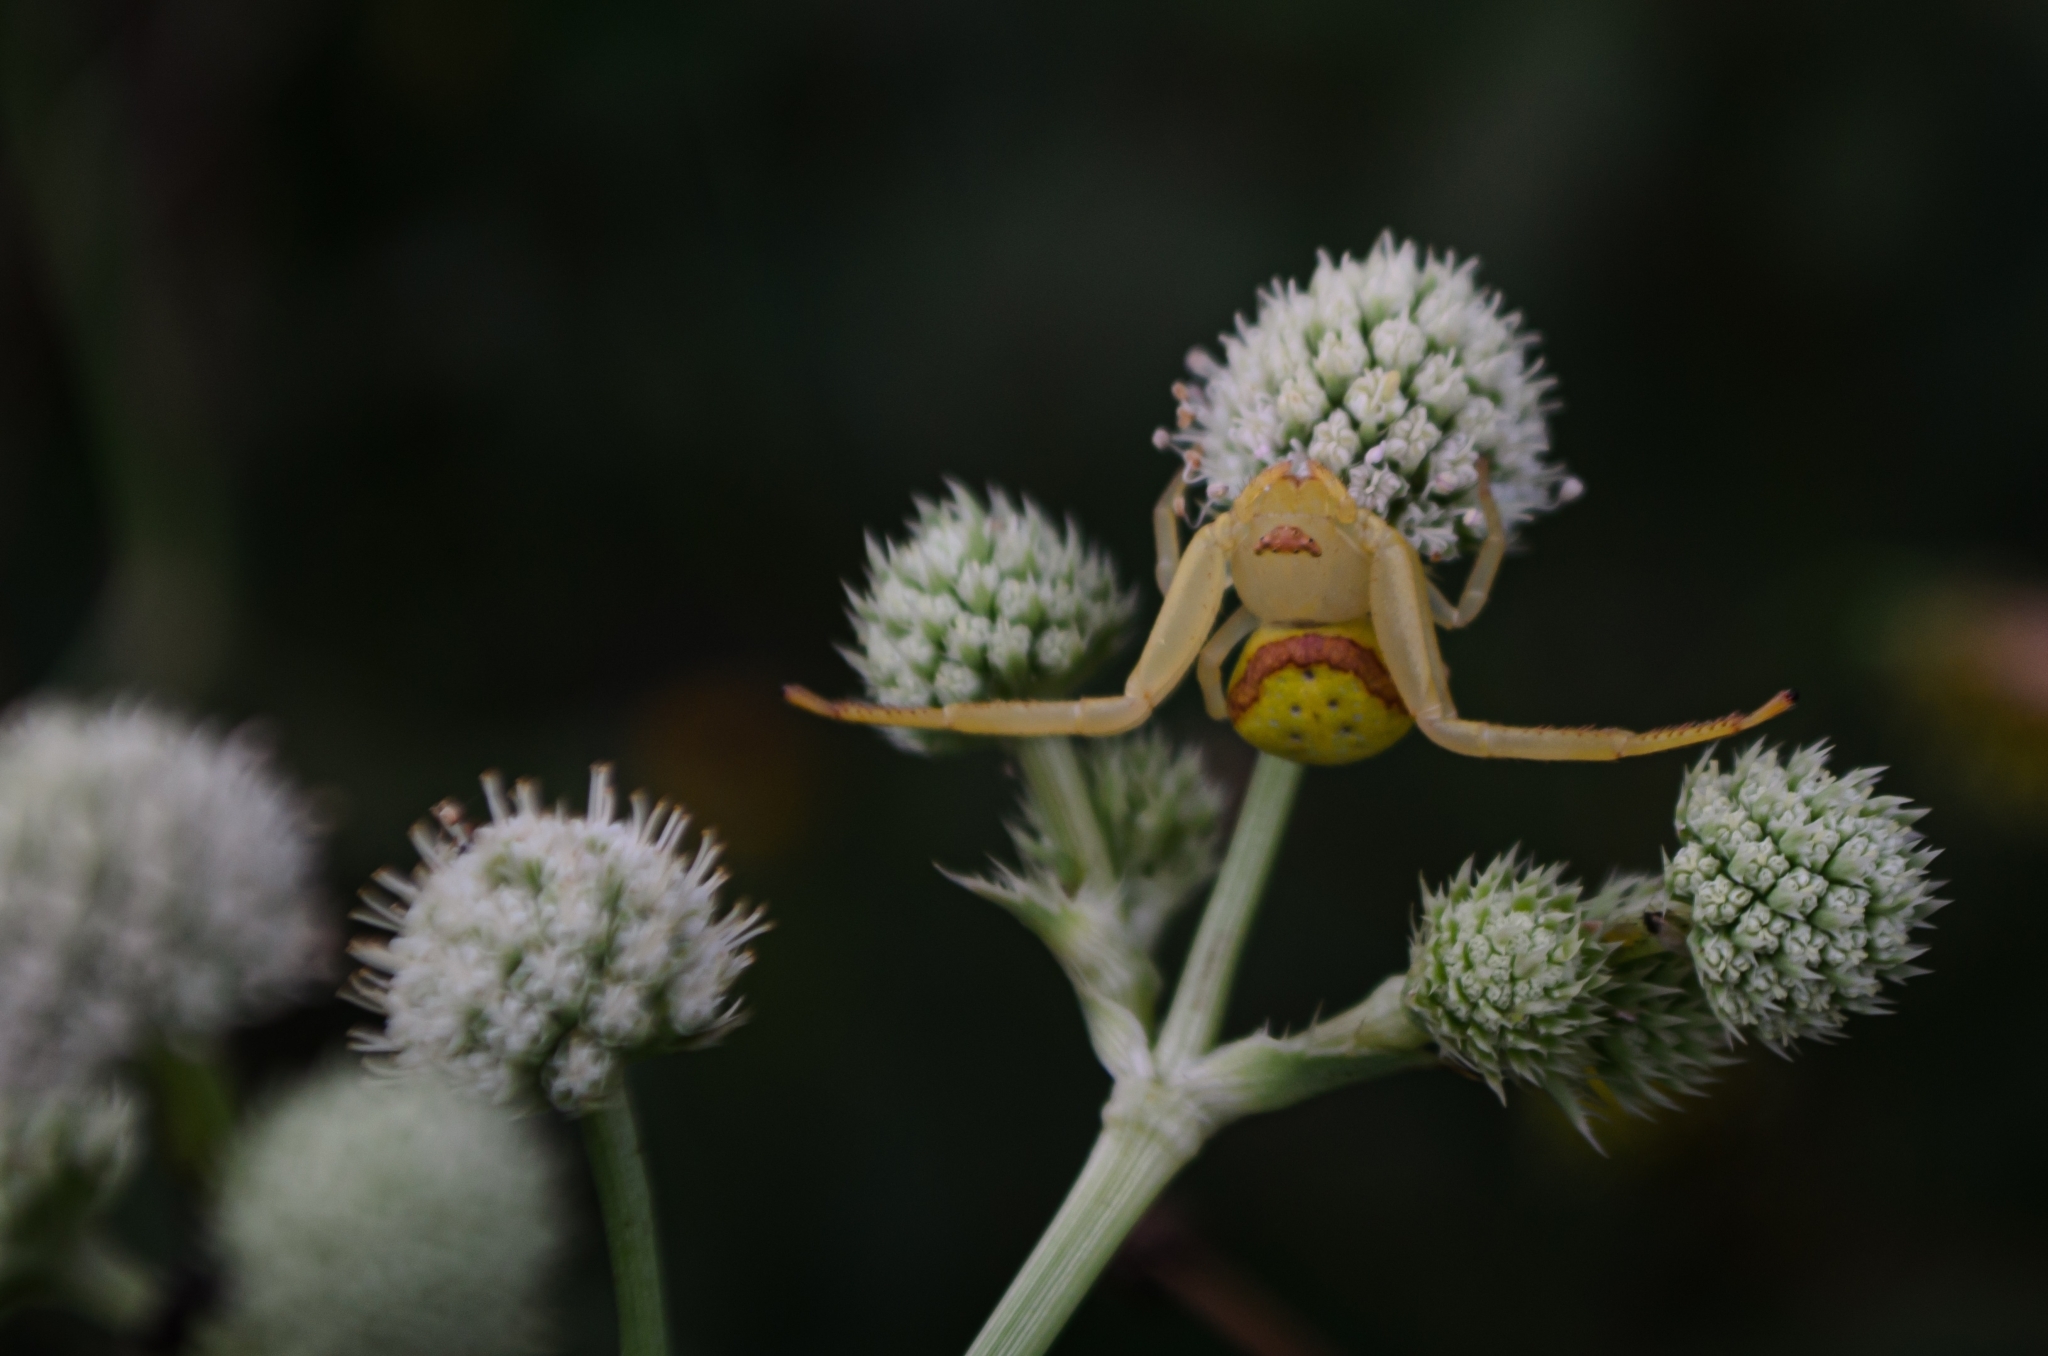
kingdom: Animalia
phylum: Arthropoda
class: Arachnida
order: Araneae
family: Thomisidae
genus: Misumenops
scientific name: Misumenops callinurus
